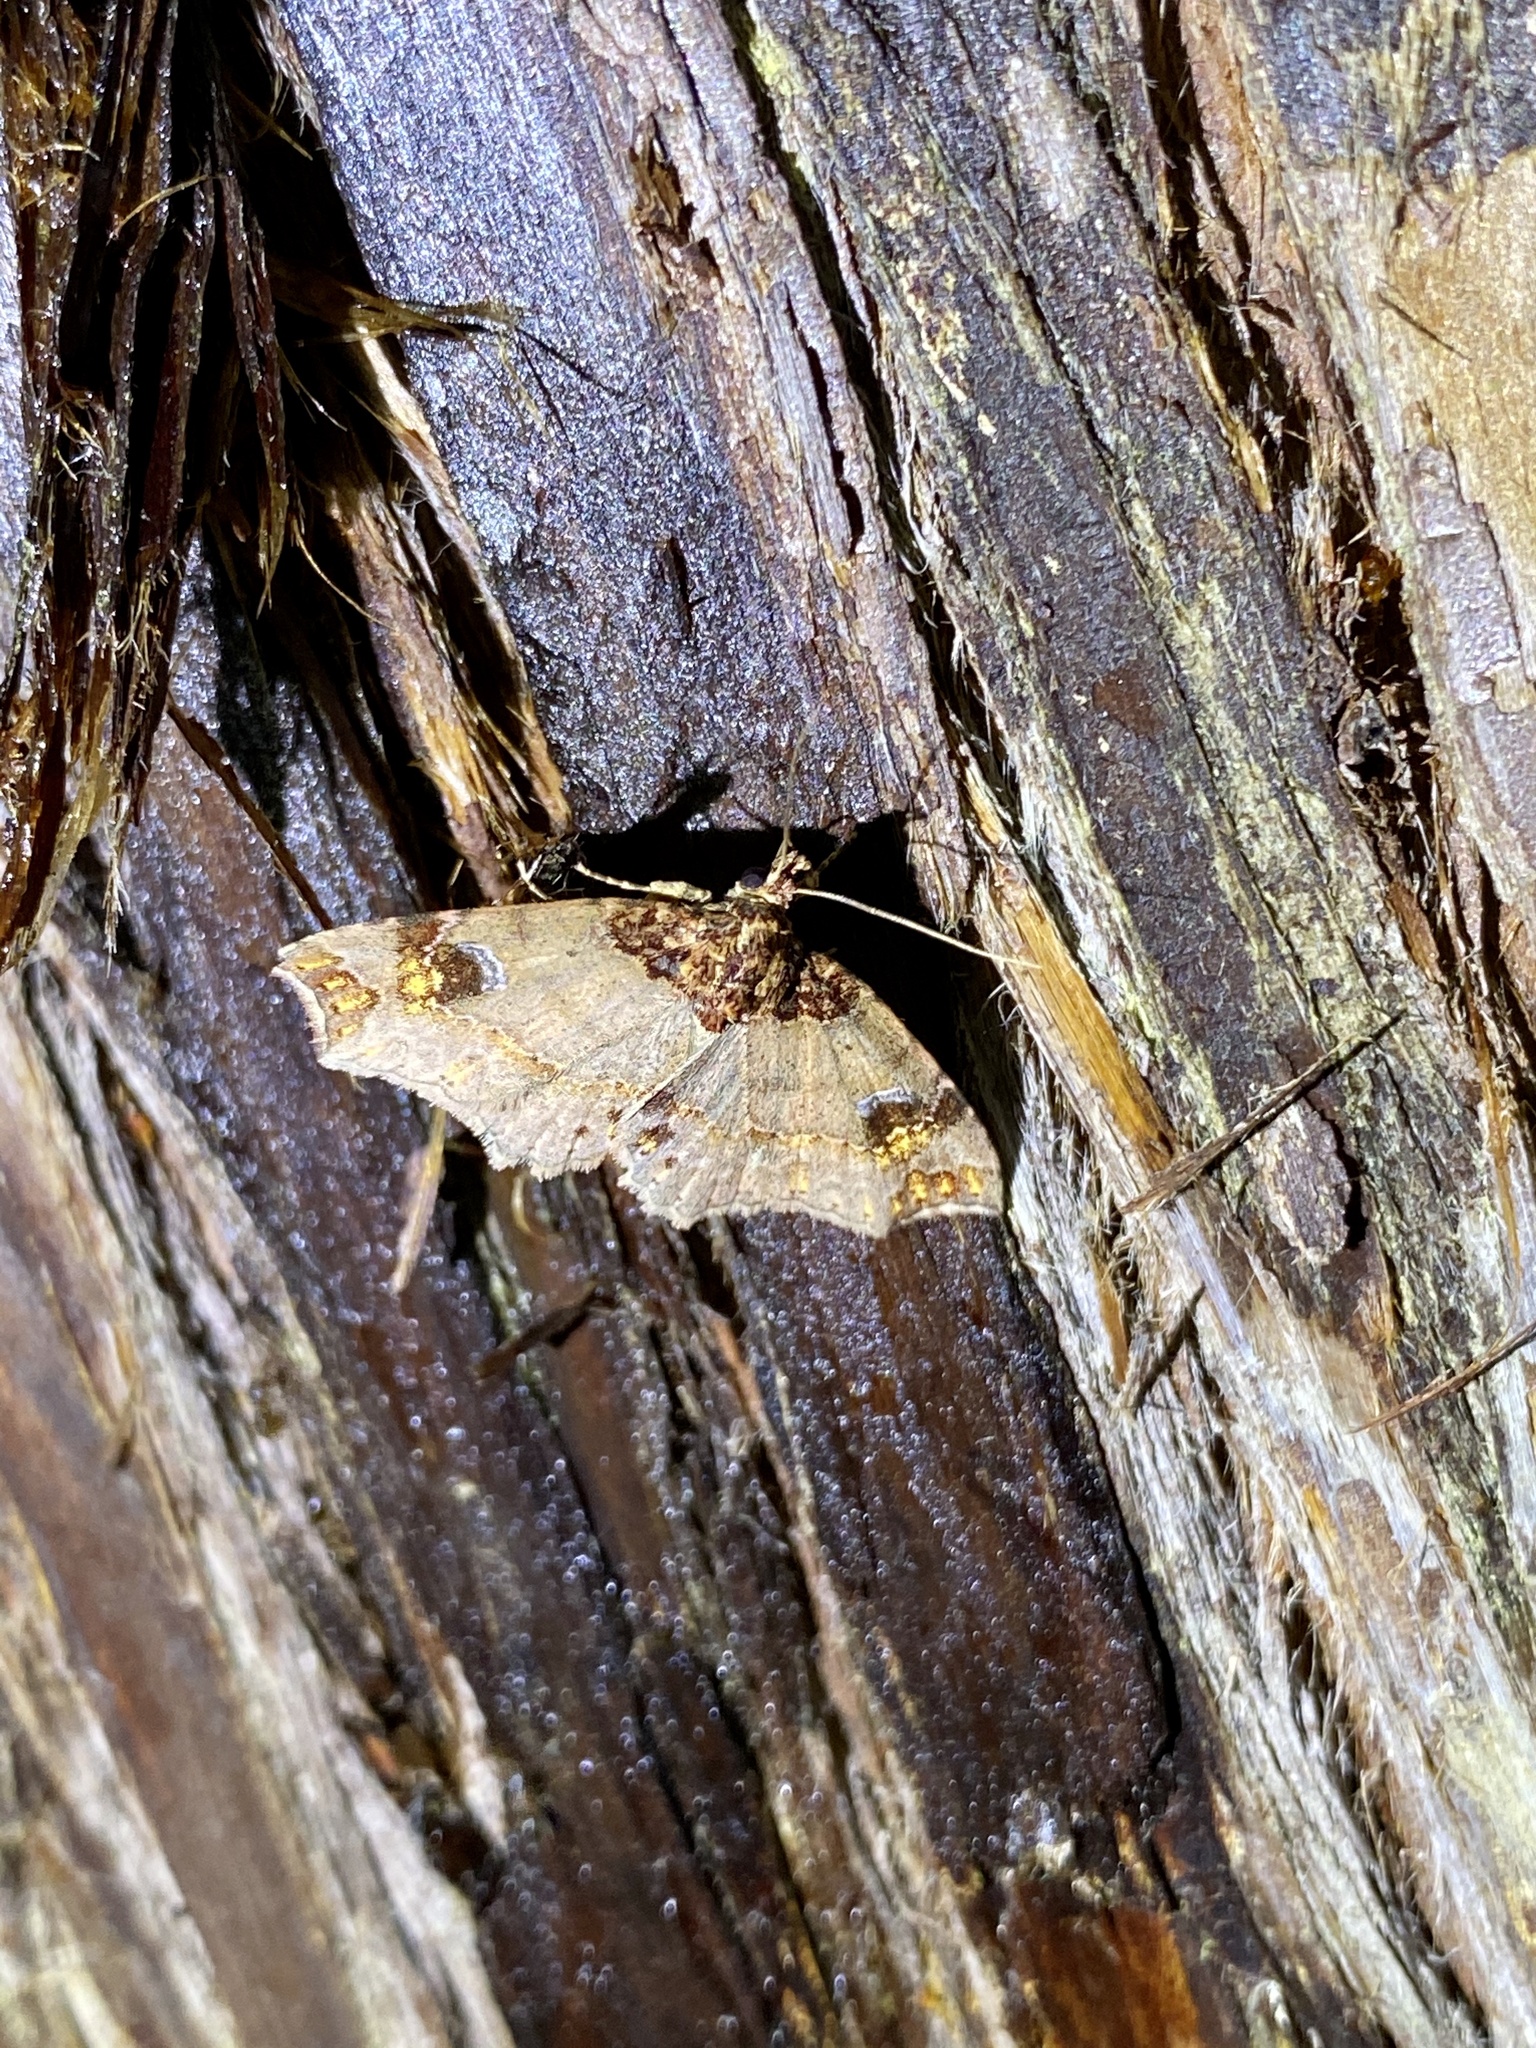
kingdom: Animalia
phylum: Arthropoda
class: Insecta
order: Lepidoptera
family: Erebidae
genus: Eugrapta
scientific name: Eugrapta igniflua
